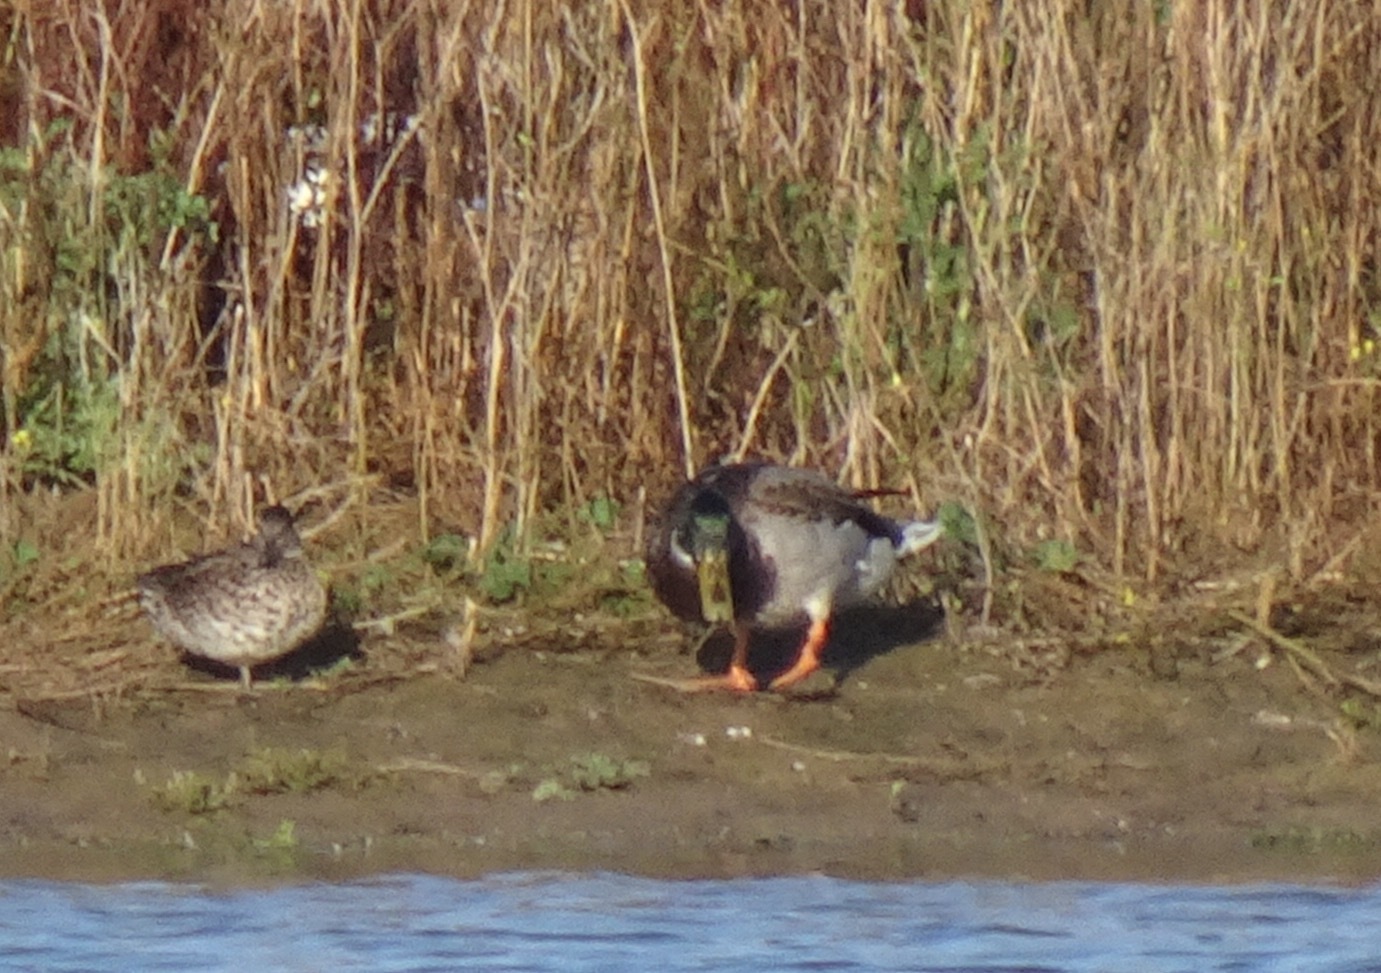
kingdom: Animalia
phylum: Chordata
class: Aves
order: Anseriformes
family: Anatidae
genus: Anas
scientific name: Anas platyrhynchos
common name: Mallard
